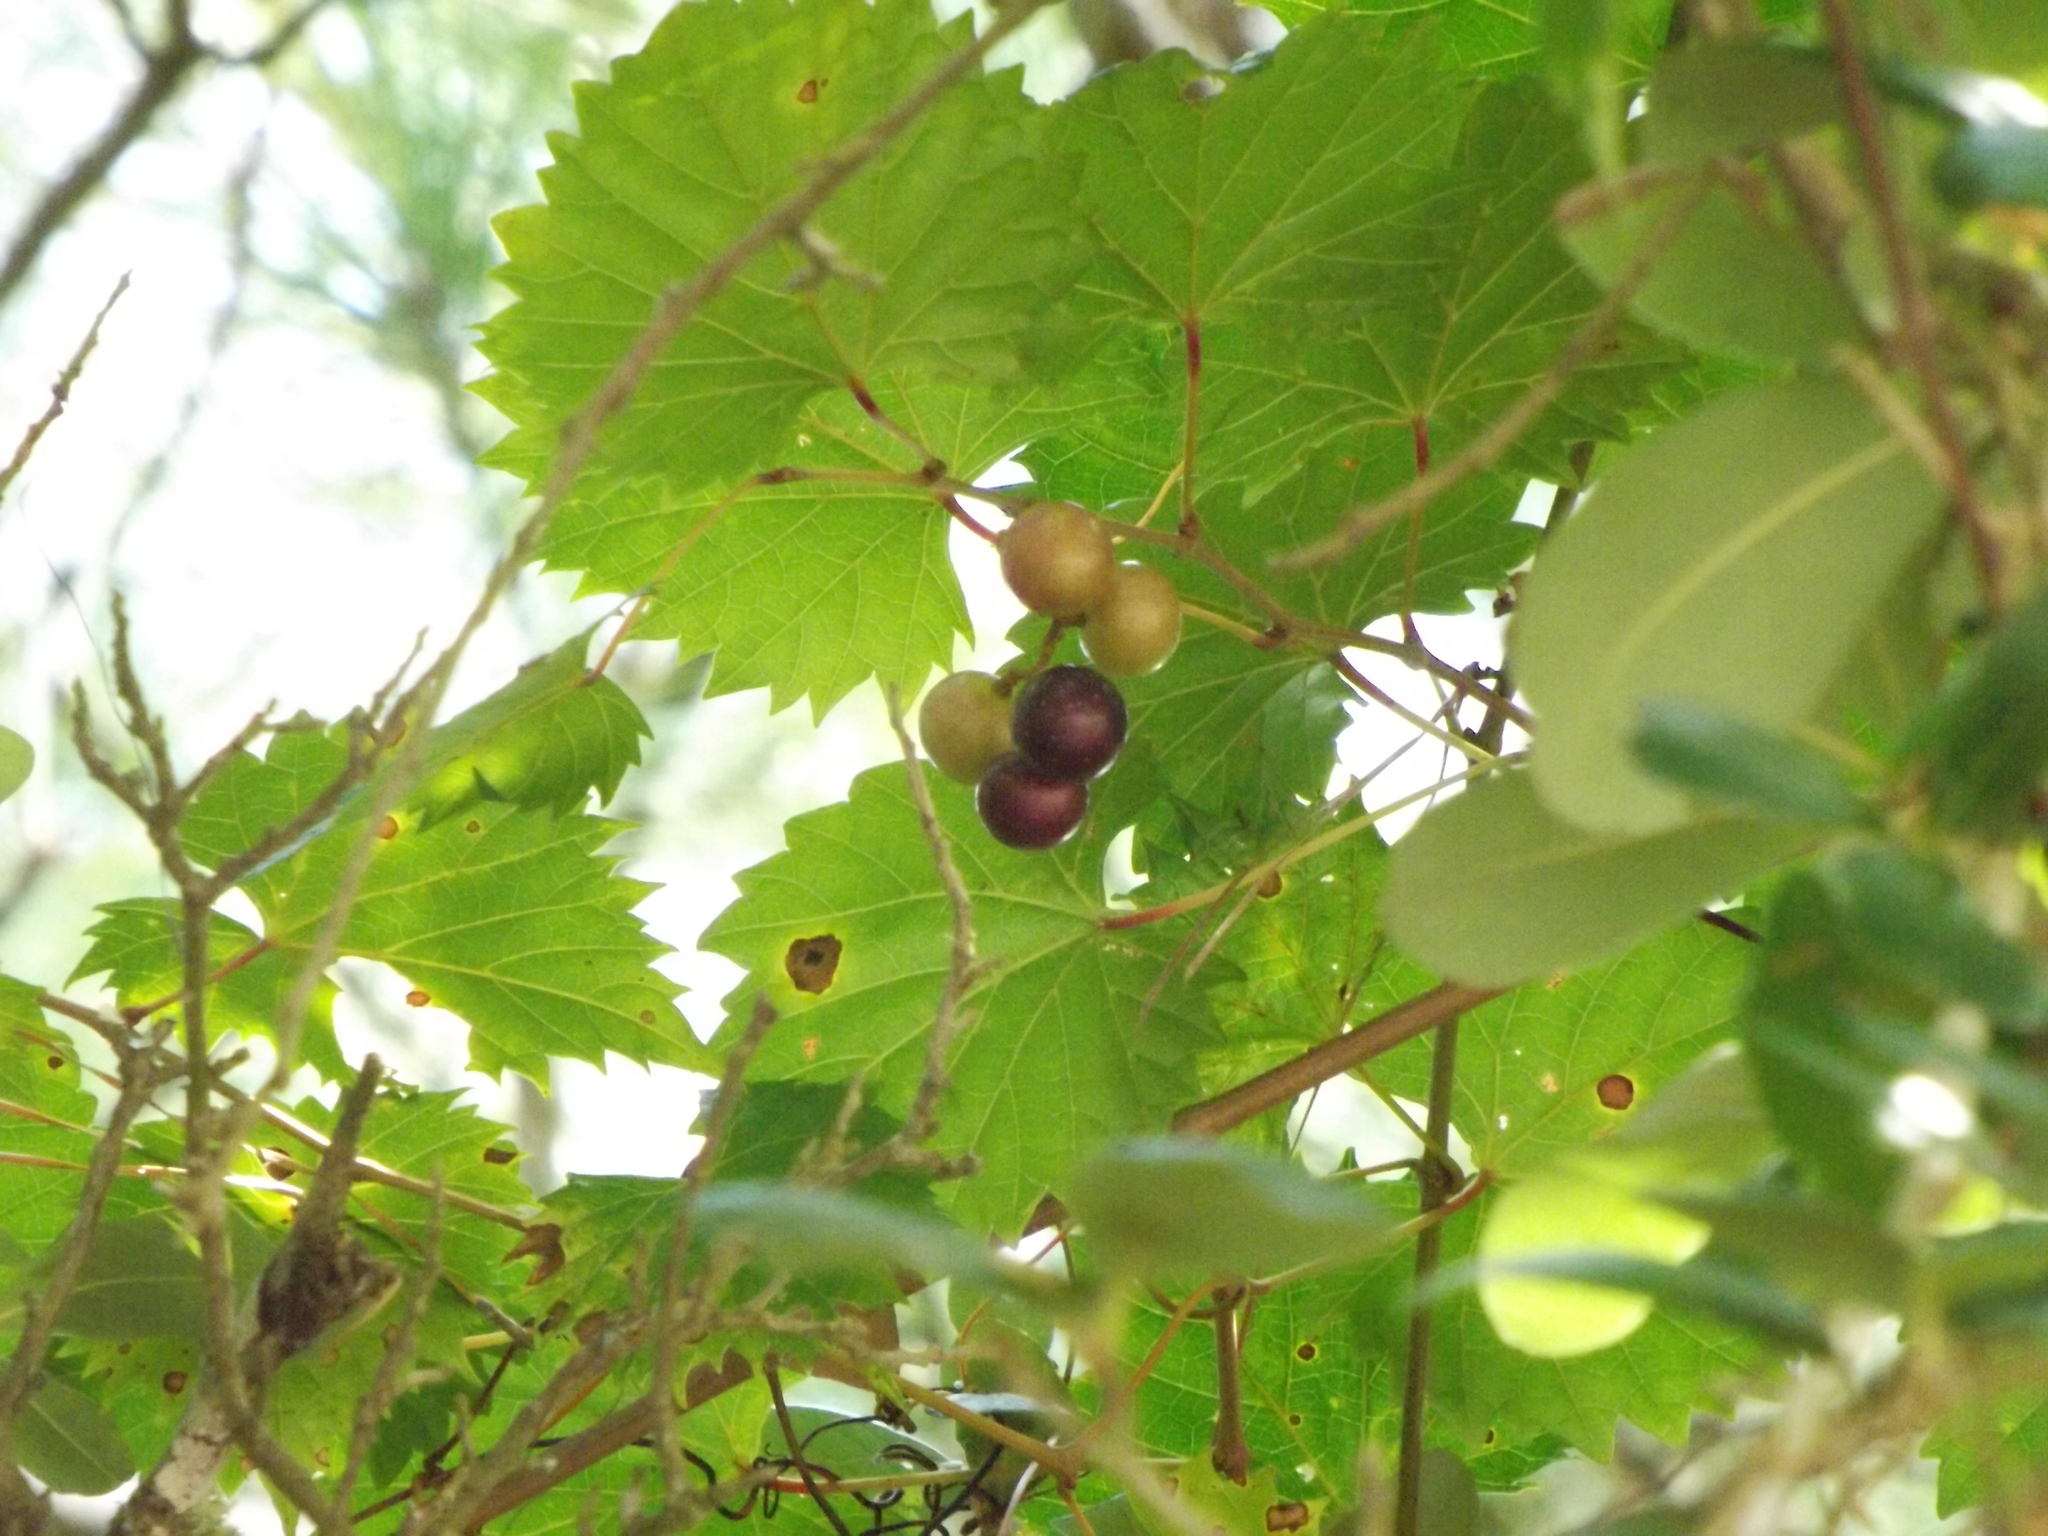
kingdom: Plantae
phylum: Tracheophyta
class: Magnoliopsida
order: Vitales
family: Vitaceae
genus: Vitis
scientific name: Vitis rotundifolia
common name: Muscadine grape
